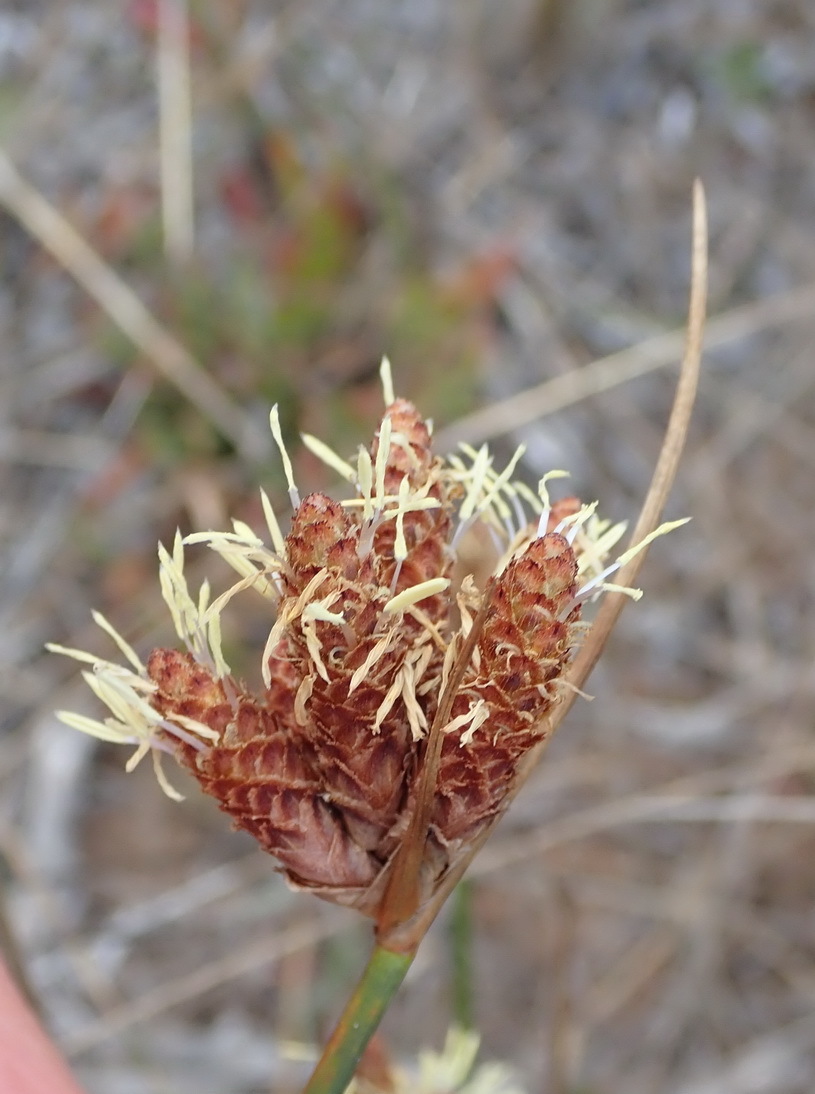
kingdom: Plantae
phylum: Tracheophyta
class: Liliopsida
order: Poales
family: Cyperaceae
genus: Hellmuthia
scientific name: Hellmuthia membranacea
